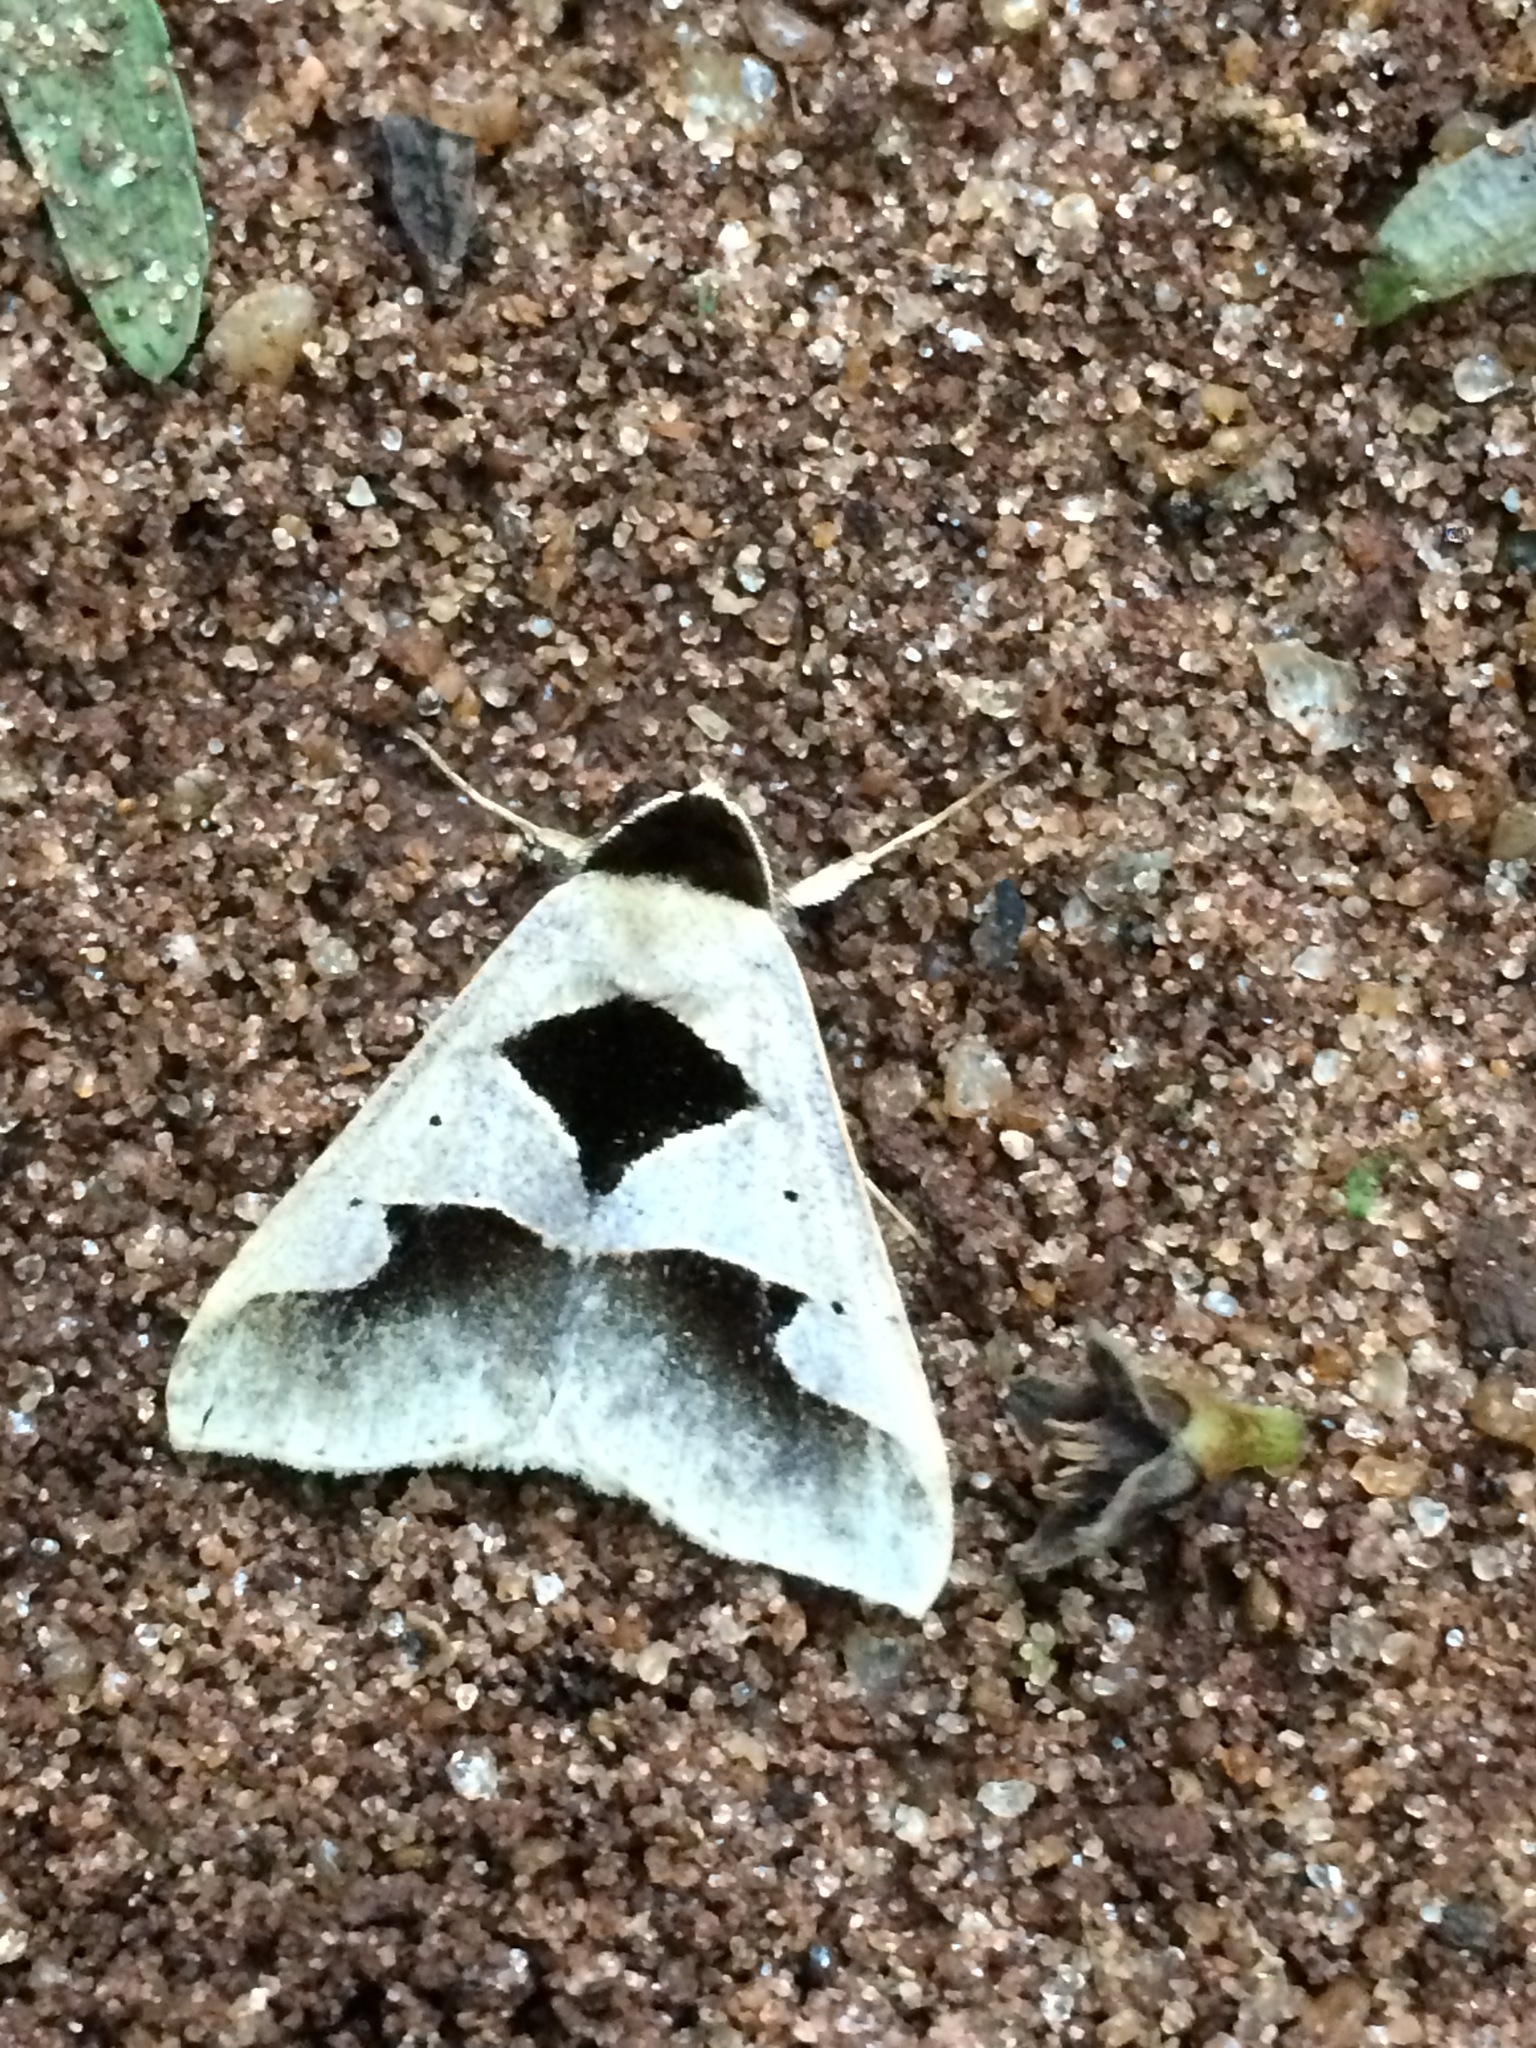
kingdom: Animalia
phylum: Arthropoda
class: Insecta
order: Lepidoptera
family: Erebidae
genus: Anoba
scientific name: Anoba trigonoides
